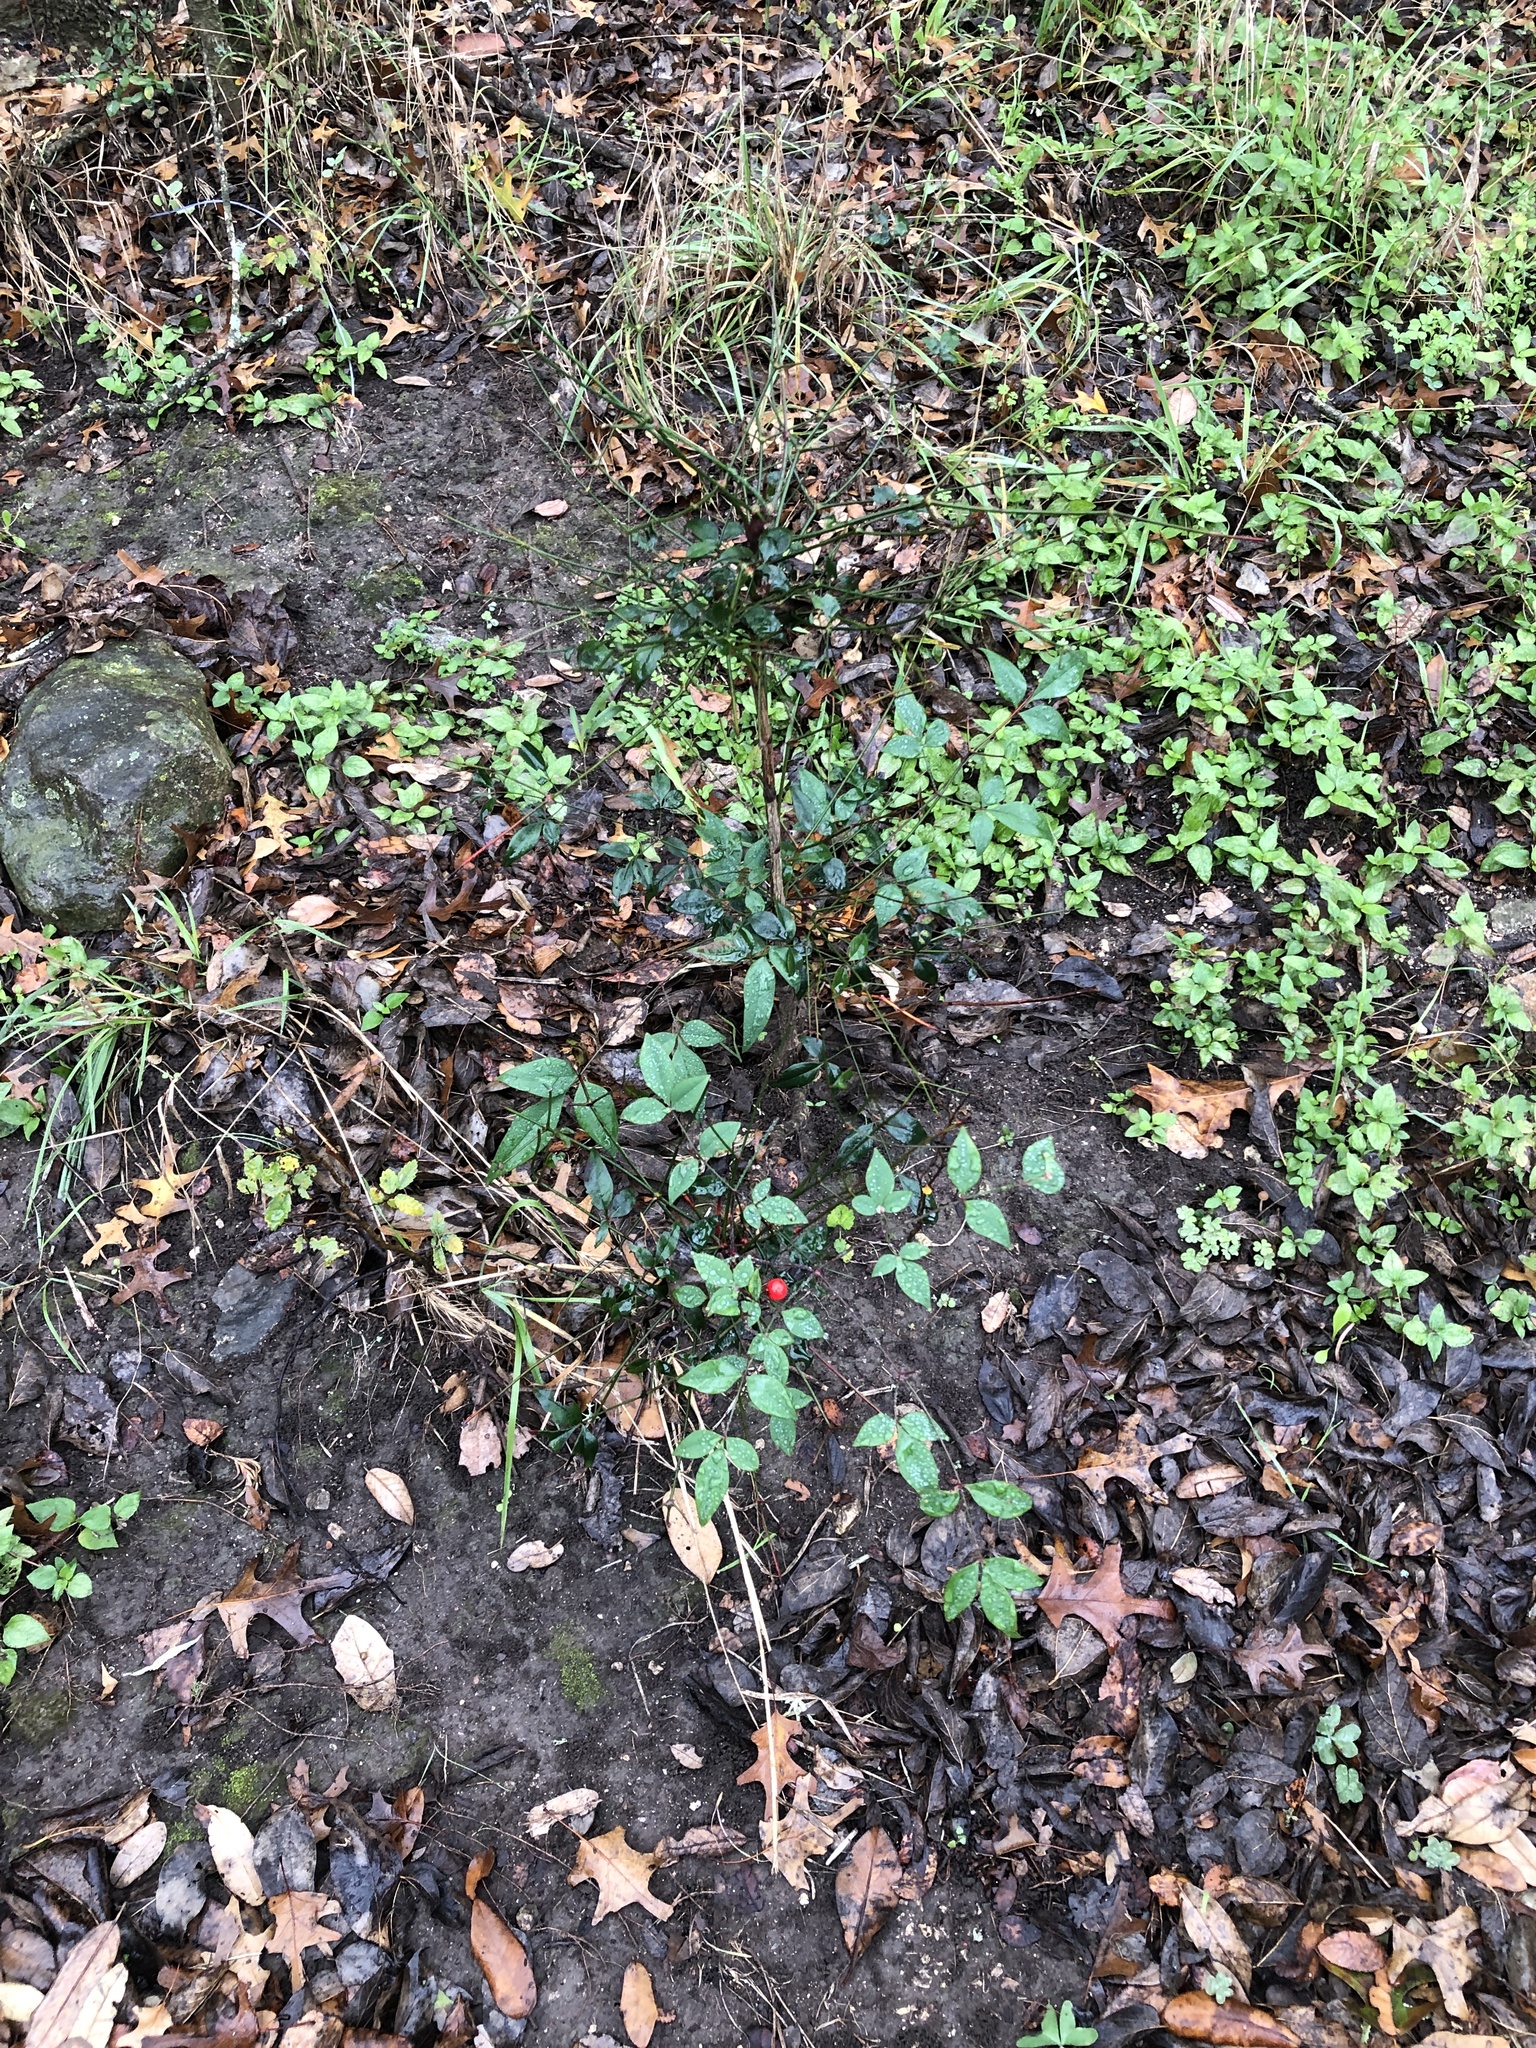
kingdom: Plantae
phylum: Tracheophyta
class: Magnoliopsida
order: Ranunculales
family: Berberidaceae
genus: Nandina
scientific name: Nandina domestica
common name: Sacred bamboo
